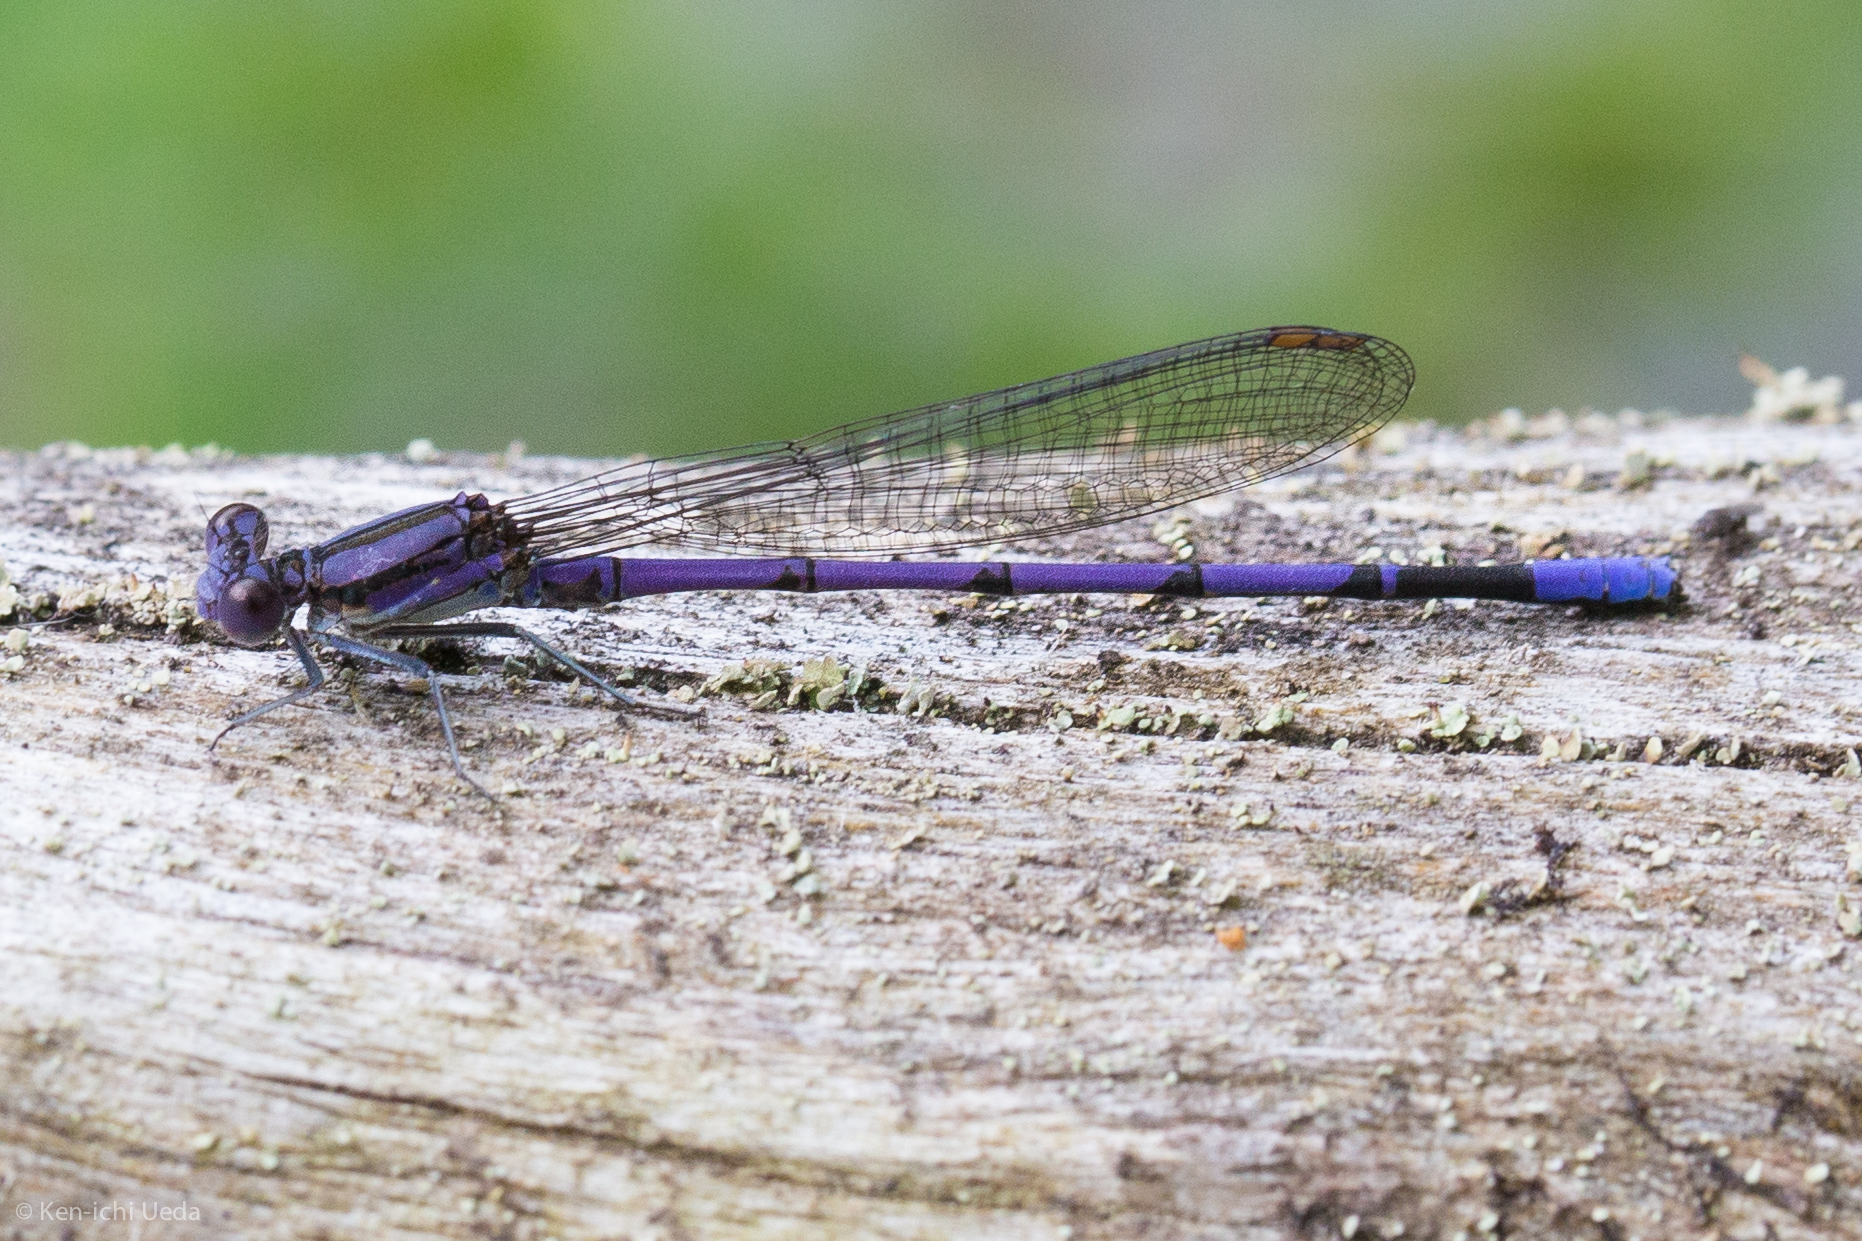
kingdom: Animalia
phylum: Arthropoda
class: Insecta
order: Odonata
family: Coenagrionidae
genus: Argia
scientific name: Argia fumipennis
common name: Variable dancer
